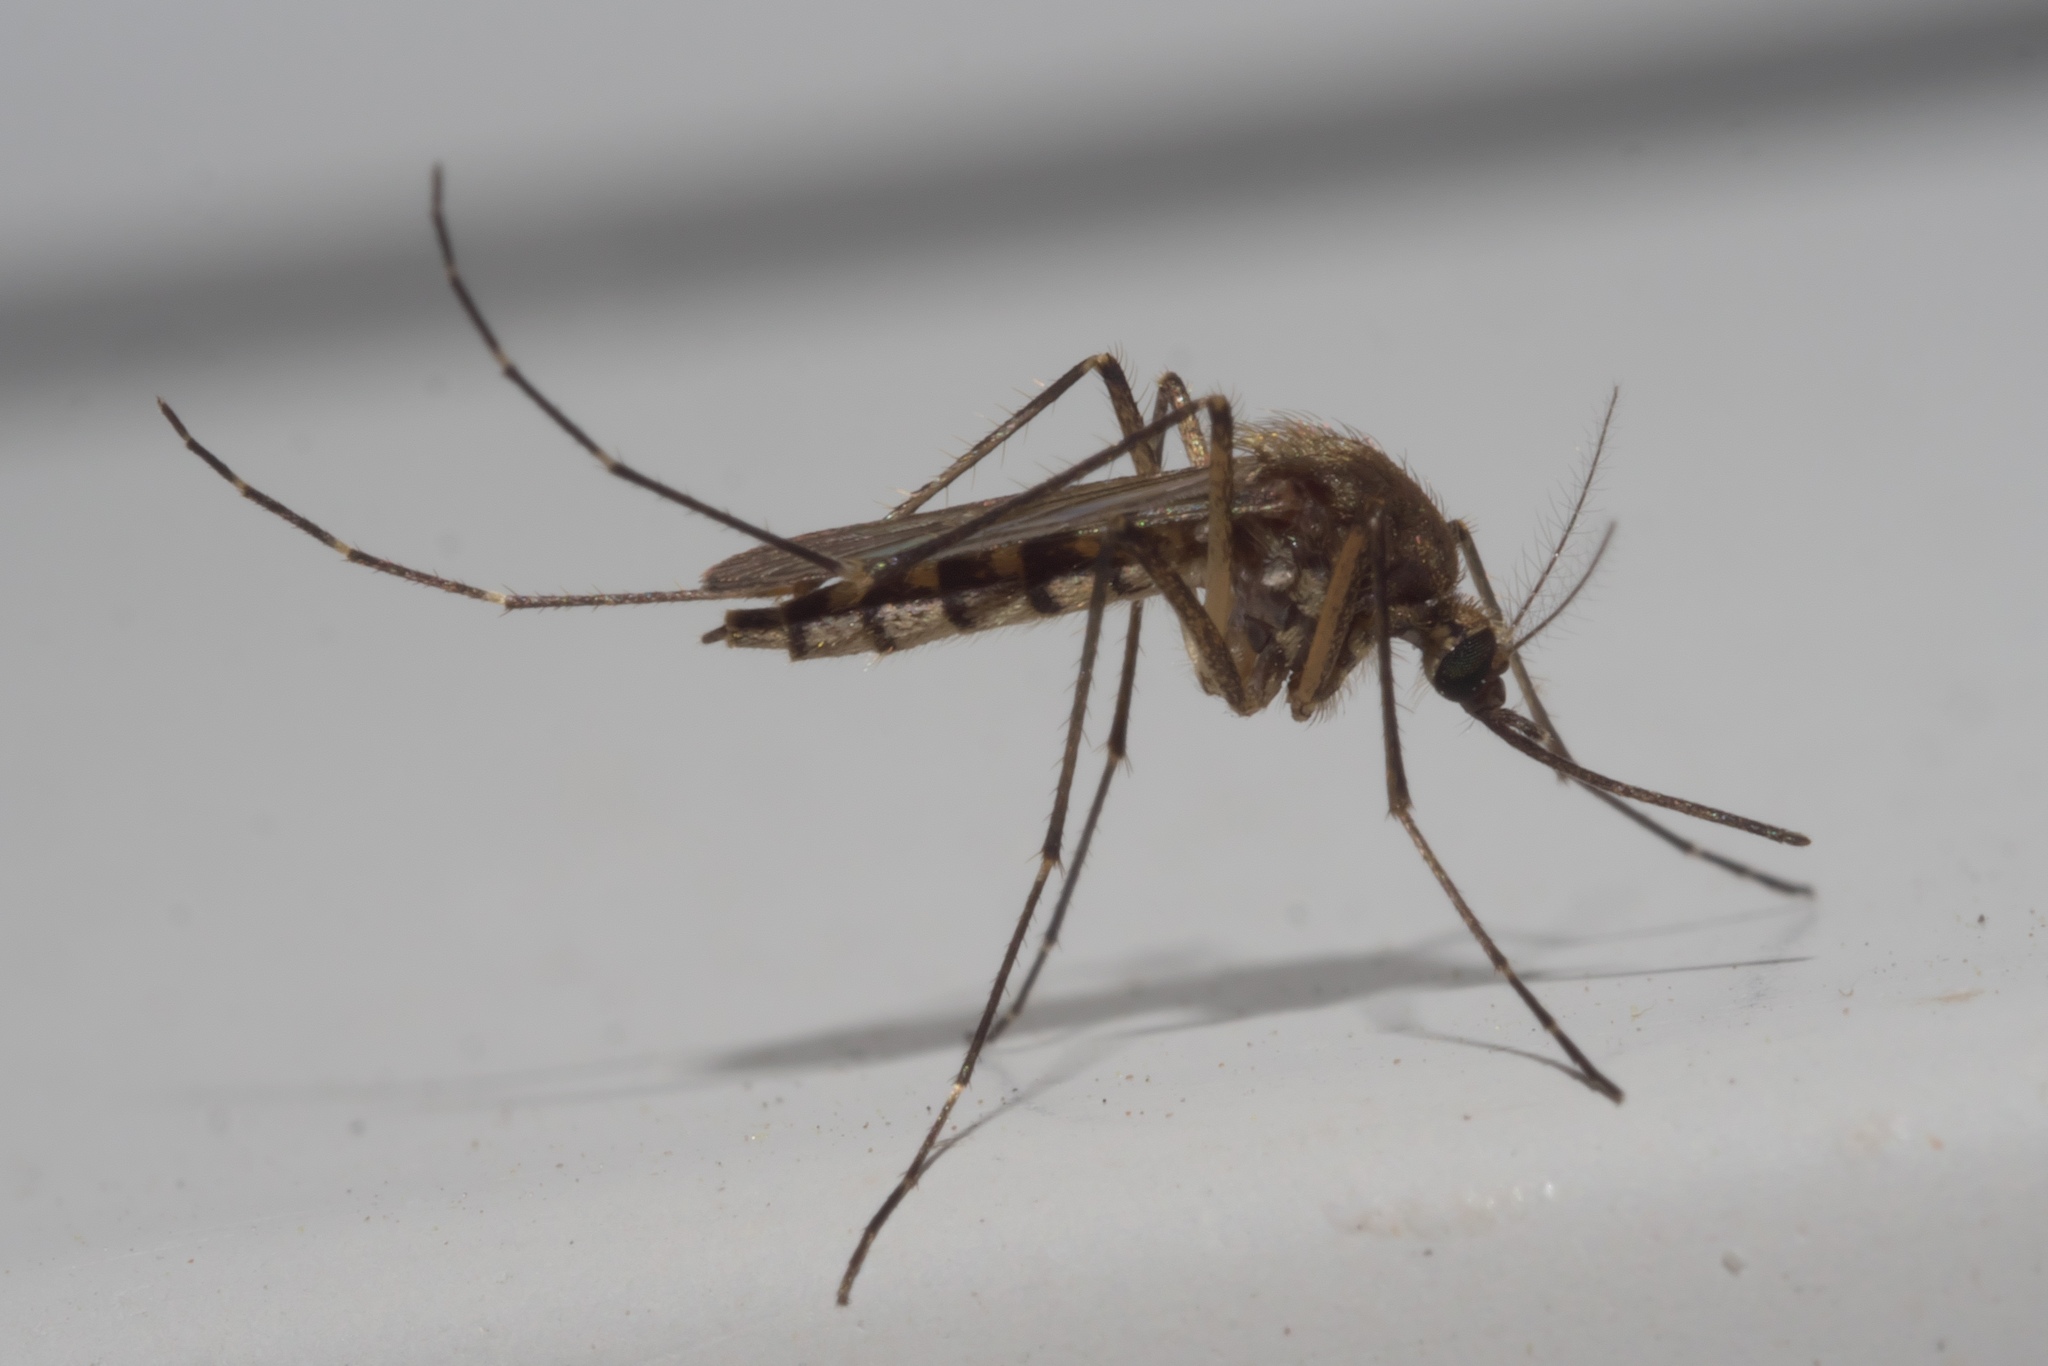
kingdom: Animalia
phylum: Arthropoda
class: Insecta
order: Diptera
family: Culicidae
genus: Aedes
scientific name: Aedes vexans
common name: Inland floodwater mosquito
